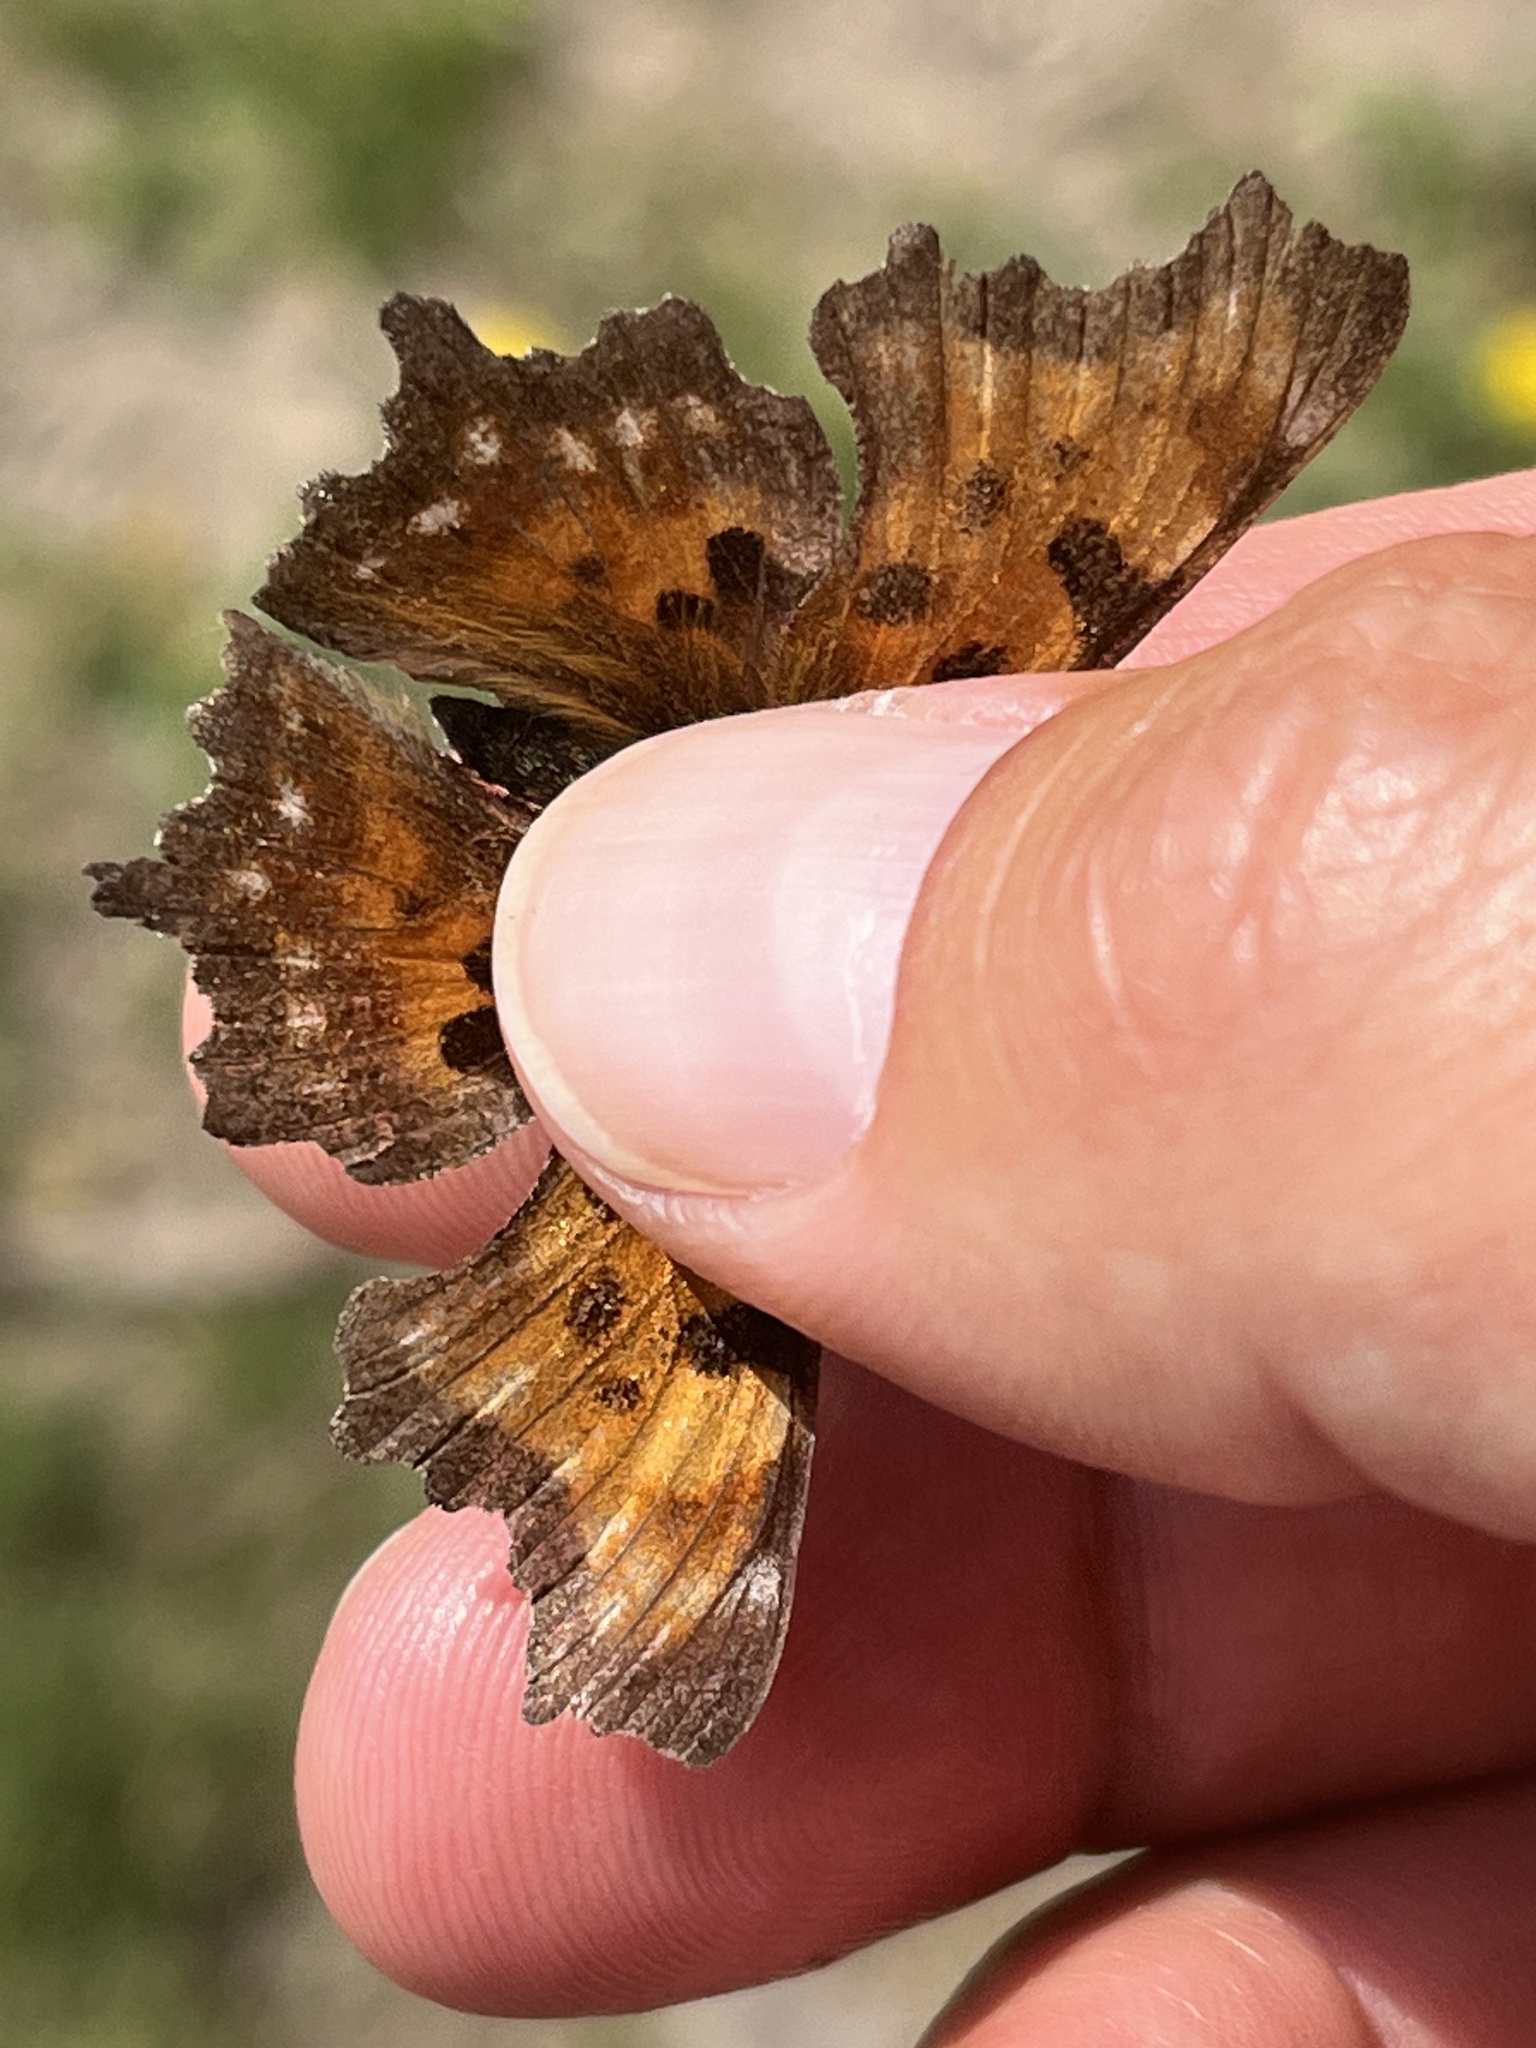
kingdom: Animalia
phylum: Arthropoda
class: Insecta
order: Lepidoptera
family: Nymphalidae
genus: Polygonia
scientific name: Polygonia faunus
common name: Green comma
